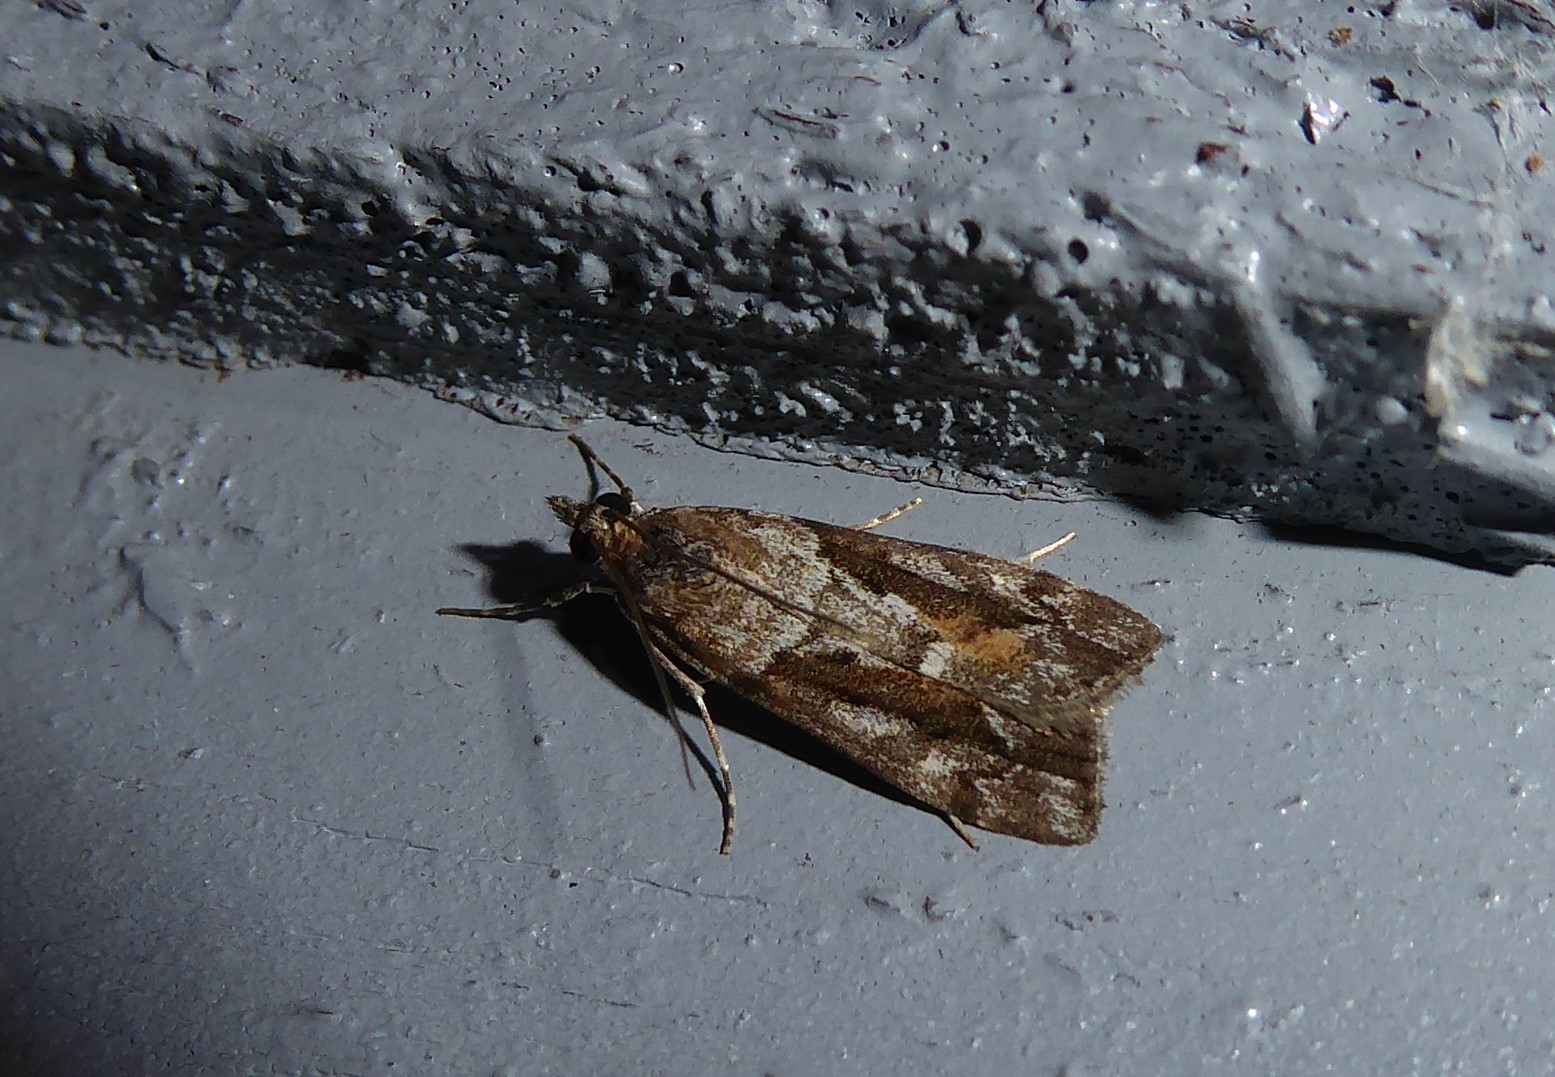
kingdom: Animalia
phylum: Arthropoda
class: Insecta
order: Lepidoptera
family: Crambidae
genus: Eudonia
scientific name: Eudonia submarginalis
